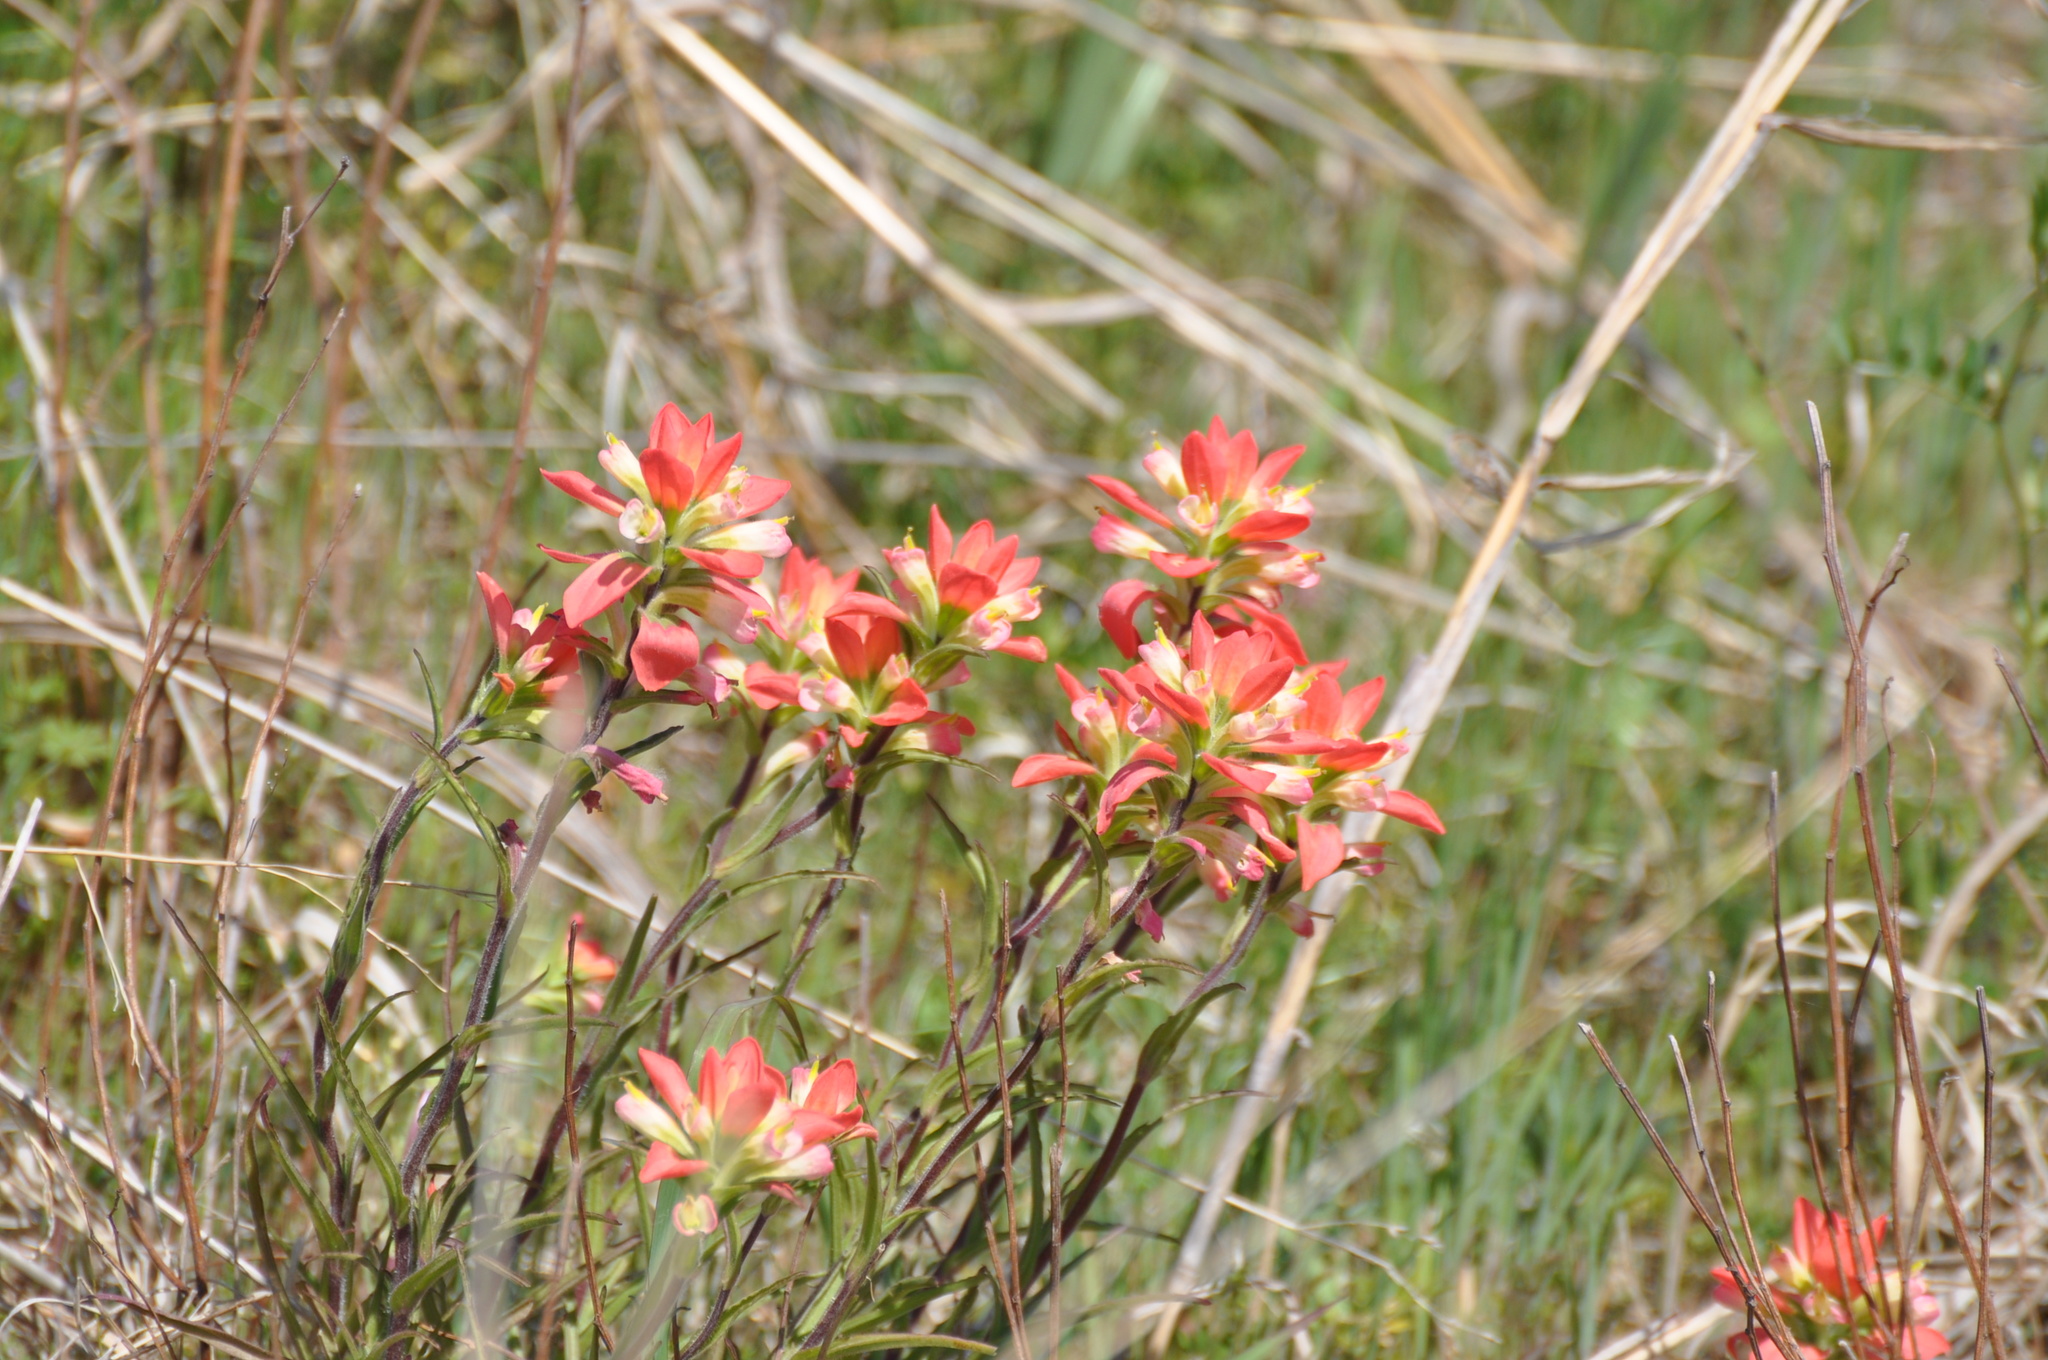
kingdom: Plantae
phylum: Tracheophyta
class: Magnoliopsida
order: Lamiales
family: Orobanchaceae
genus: Castilleja
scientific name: Castilleja indivisa
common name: Texas paintbrush
